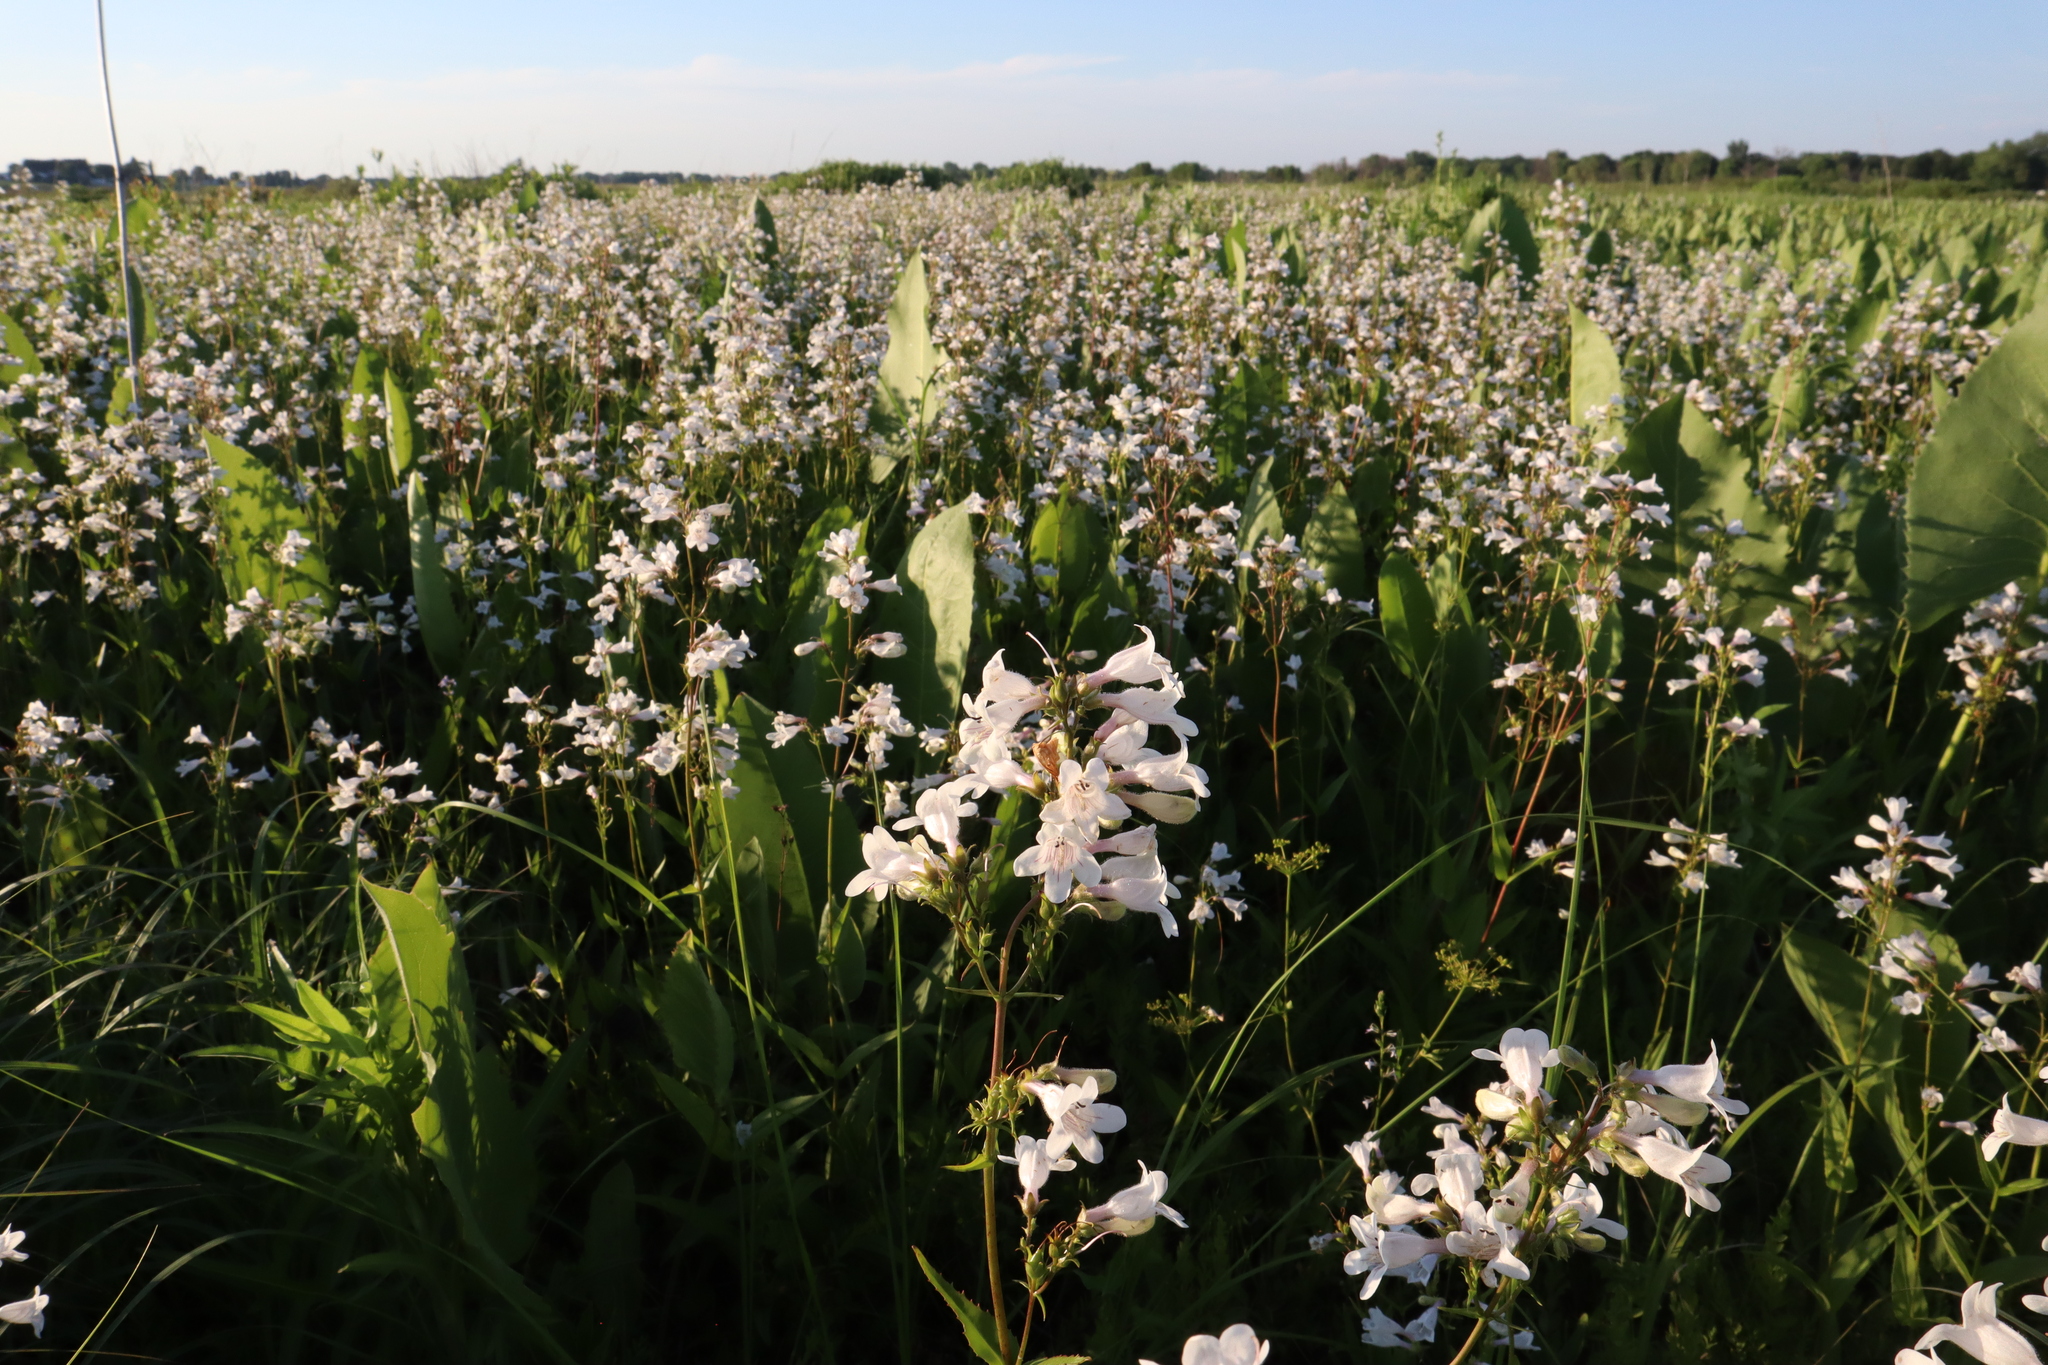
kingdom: Plantae
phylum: Tracheophyta
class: Magnoliopsida
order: Lamiales
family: Plantaginaceae
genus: Penstemon
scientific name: Penstemon digitalis
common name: Foxglove beardtongue
